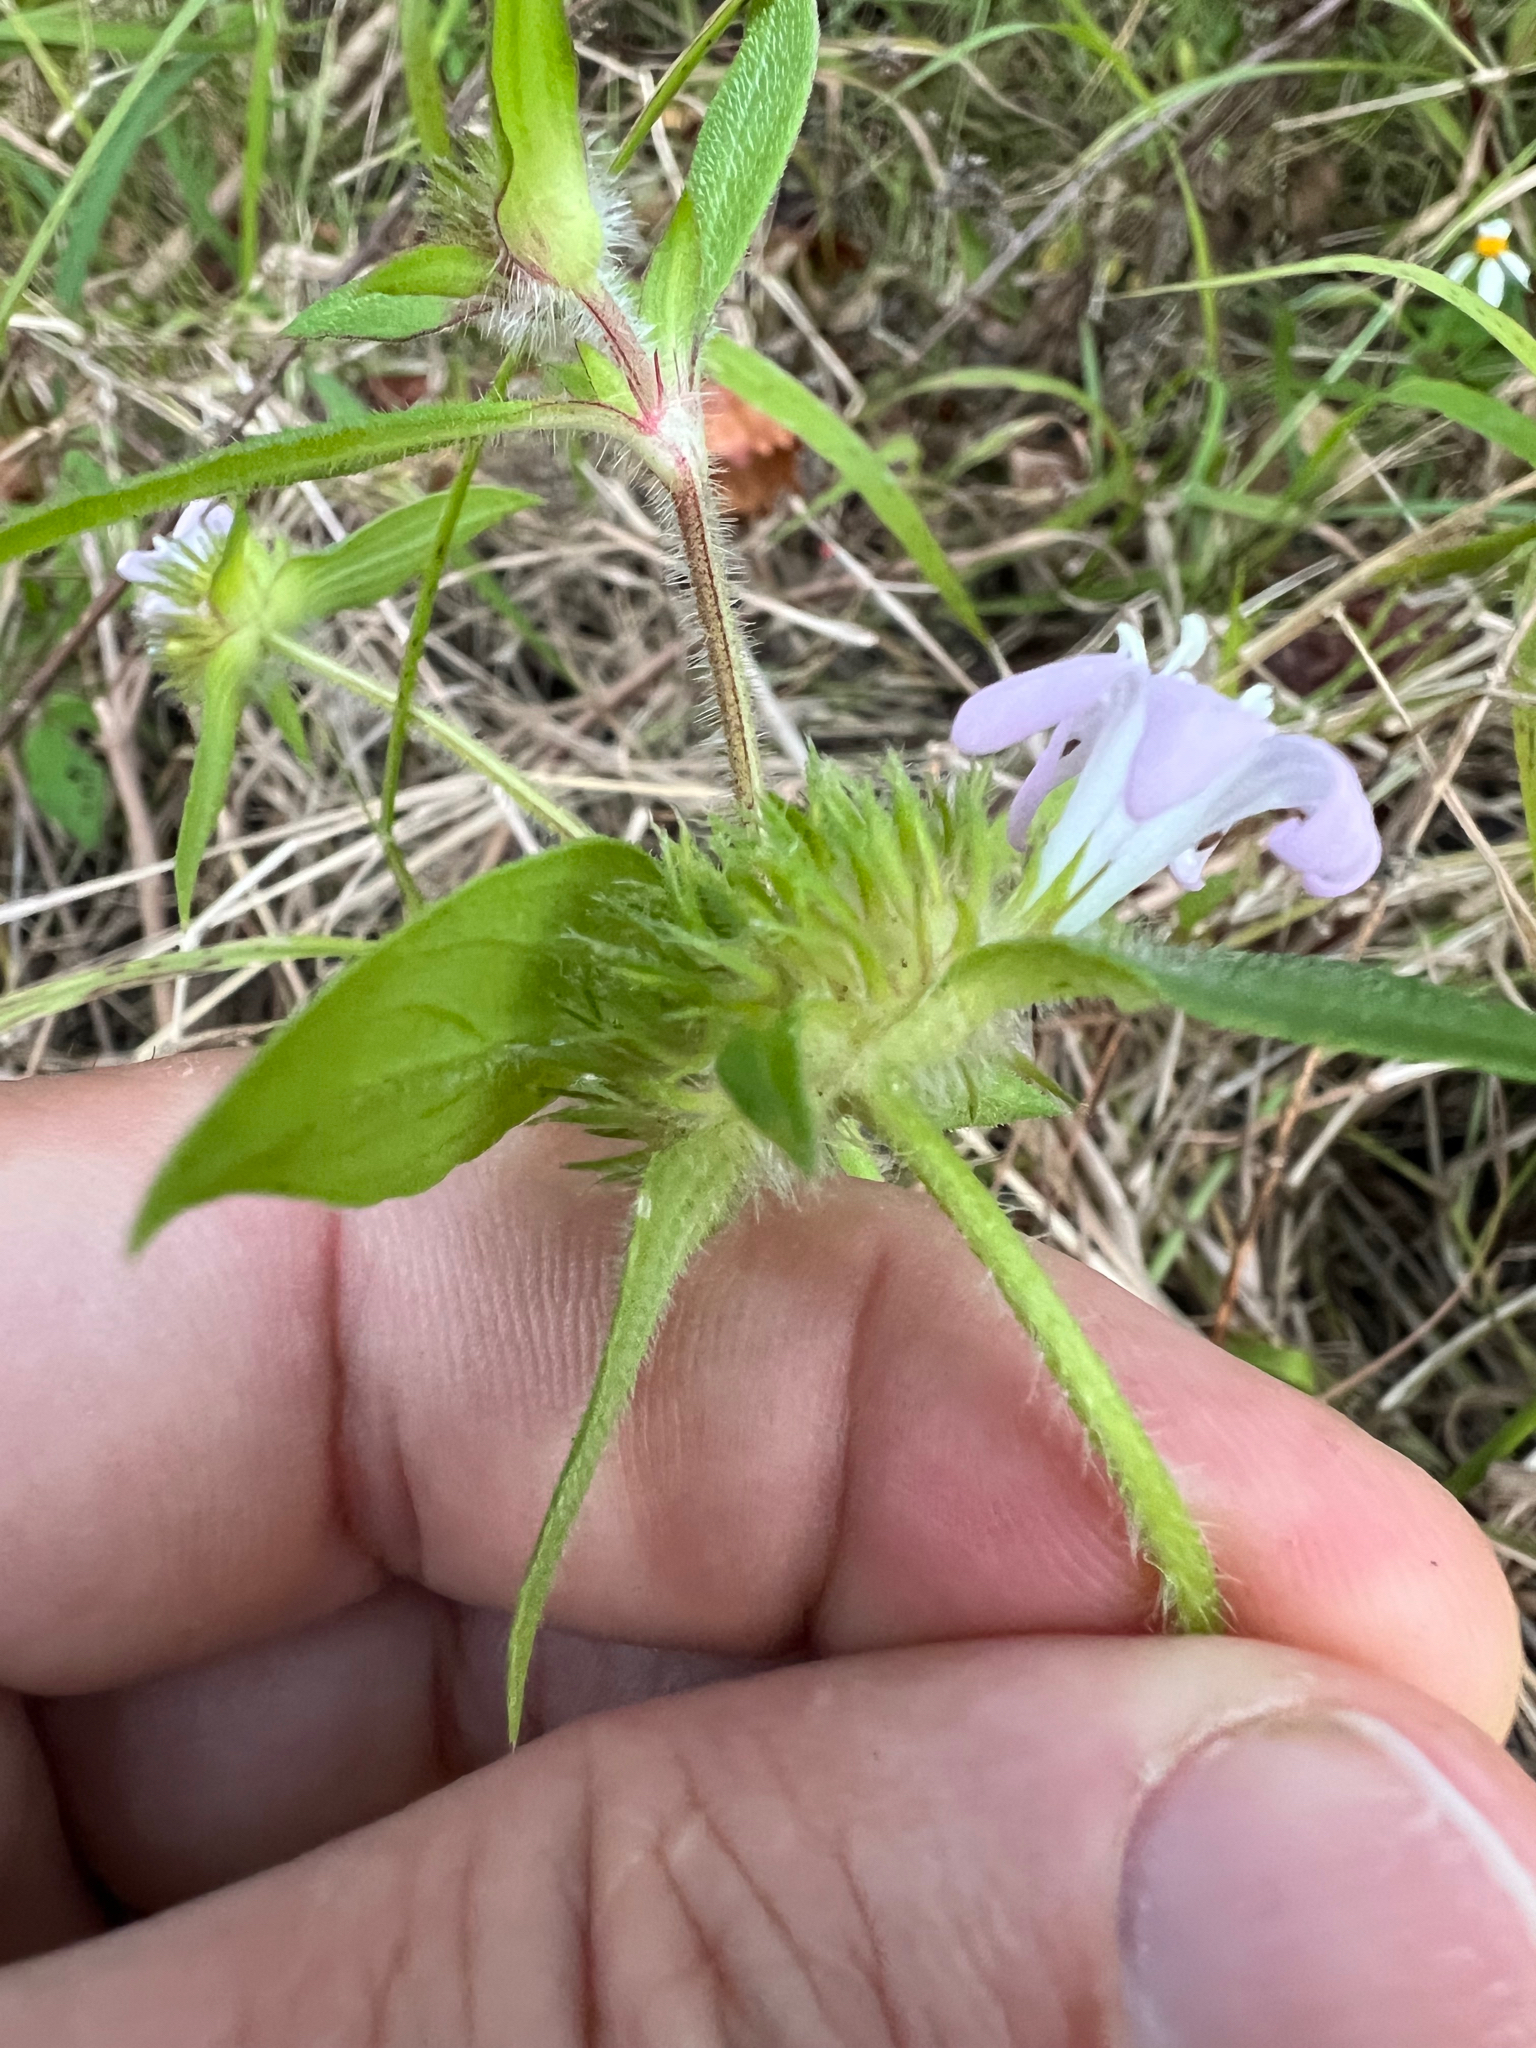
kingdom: Plantae
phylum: Tracheophyta
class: Magnoliopsida
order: Gentianales
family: Rubiaceae
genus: Richardia
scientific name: Richardia grandiflora
